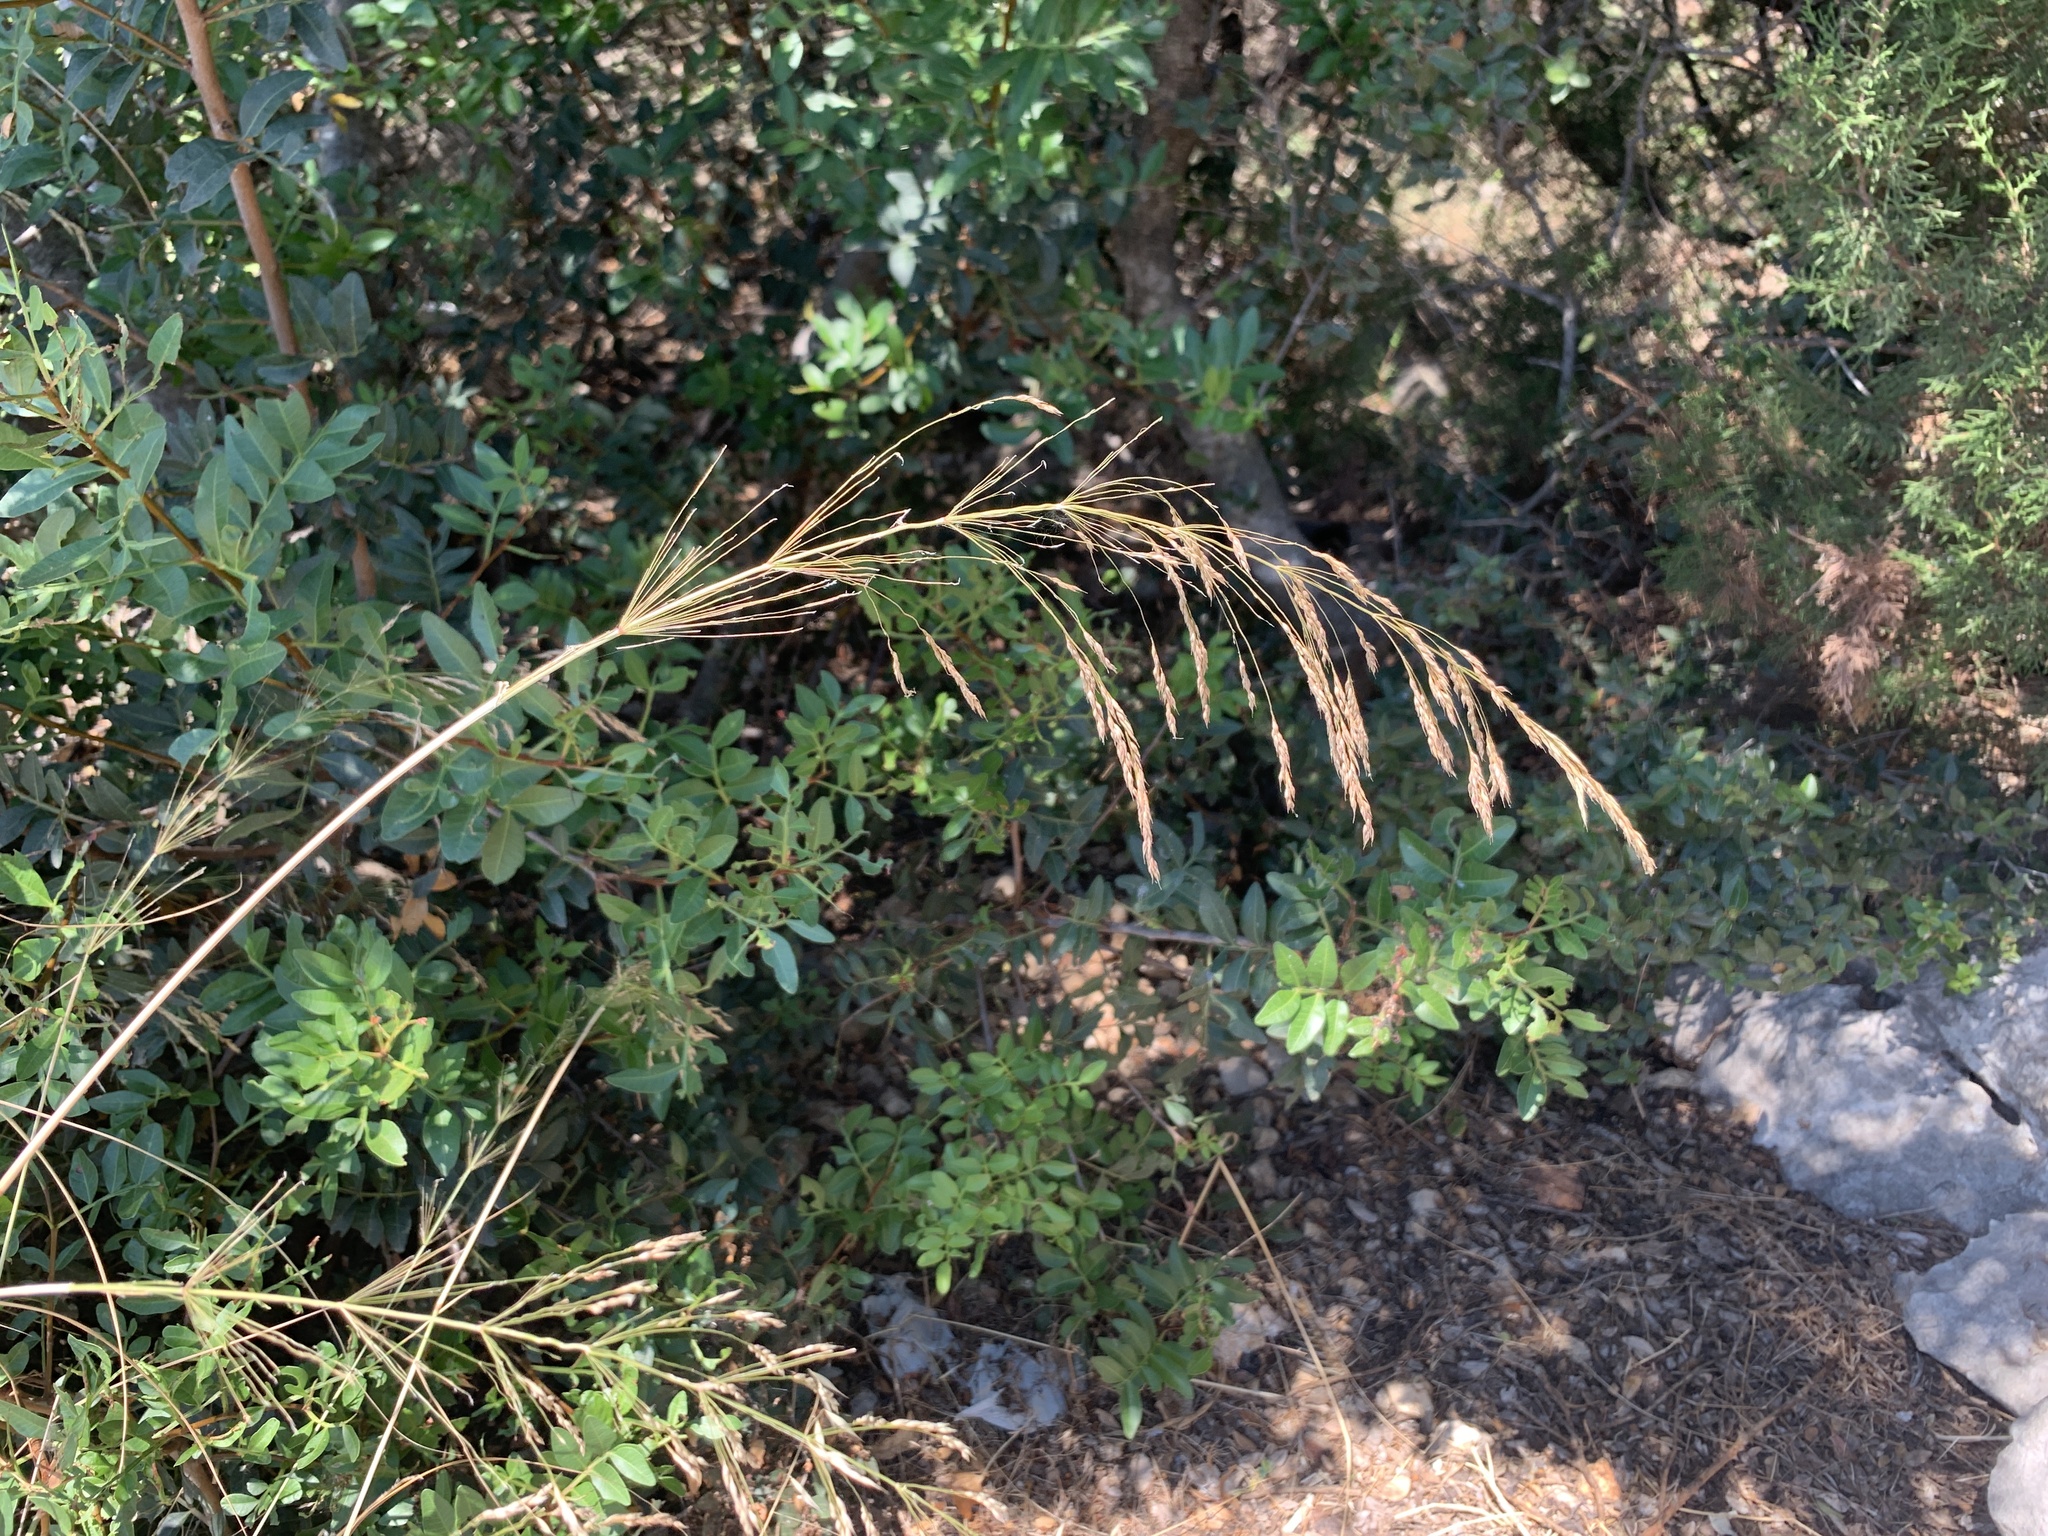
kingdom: Plantae
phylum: Tracheophyta
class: Liliopsida
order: Poales
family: Poaceae
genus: Oloptum
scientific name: Oloptum miliaceum
